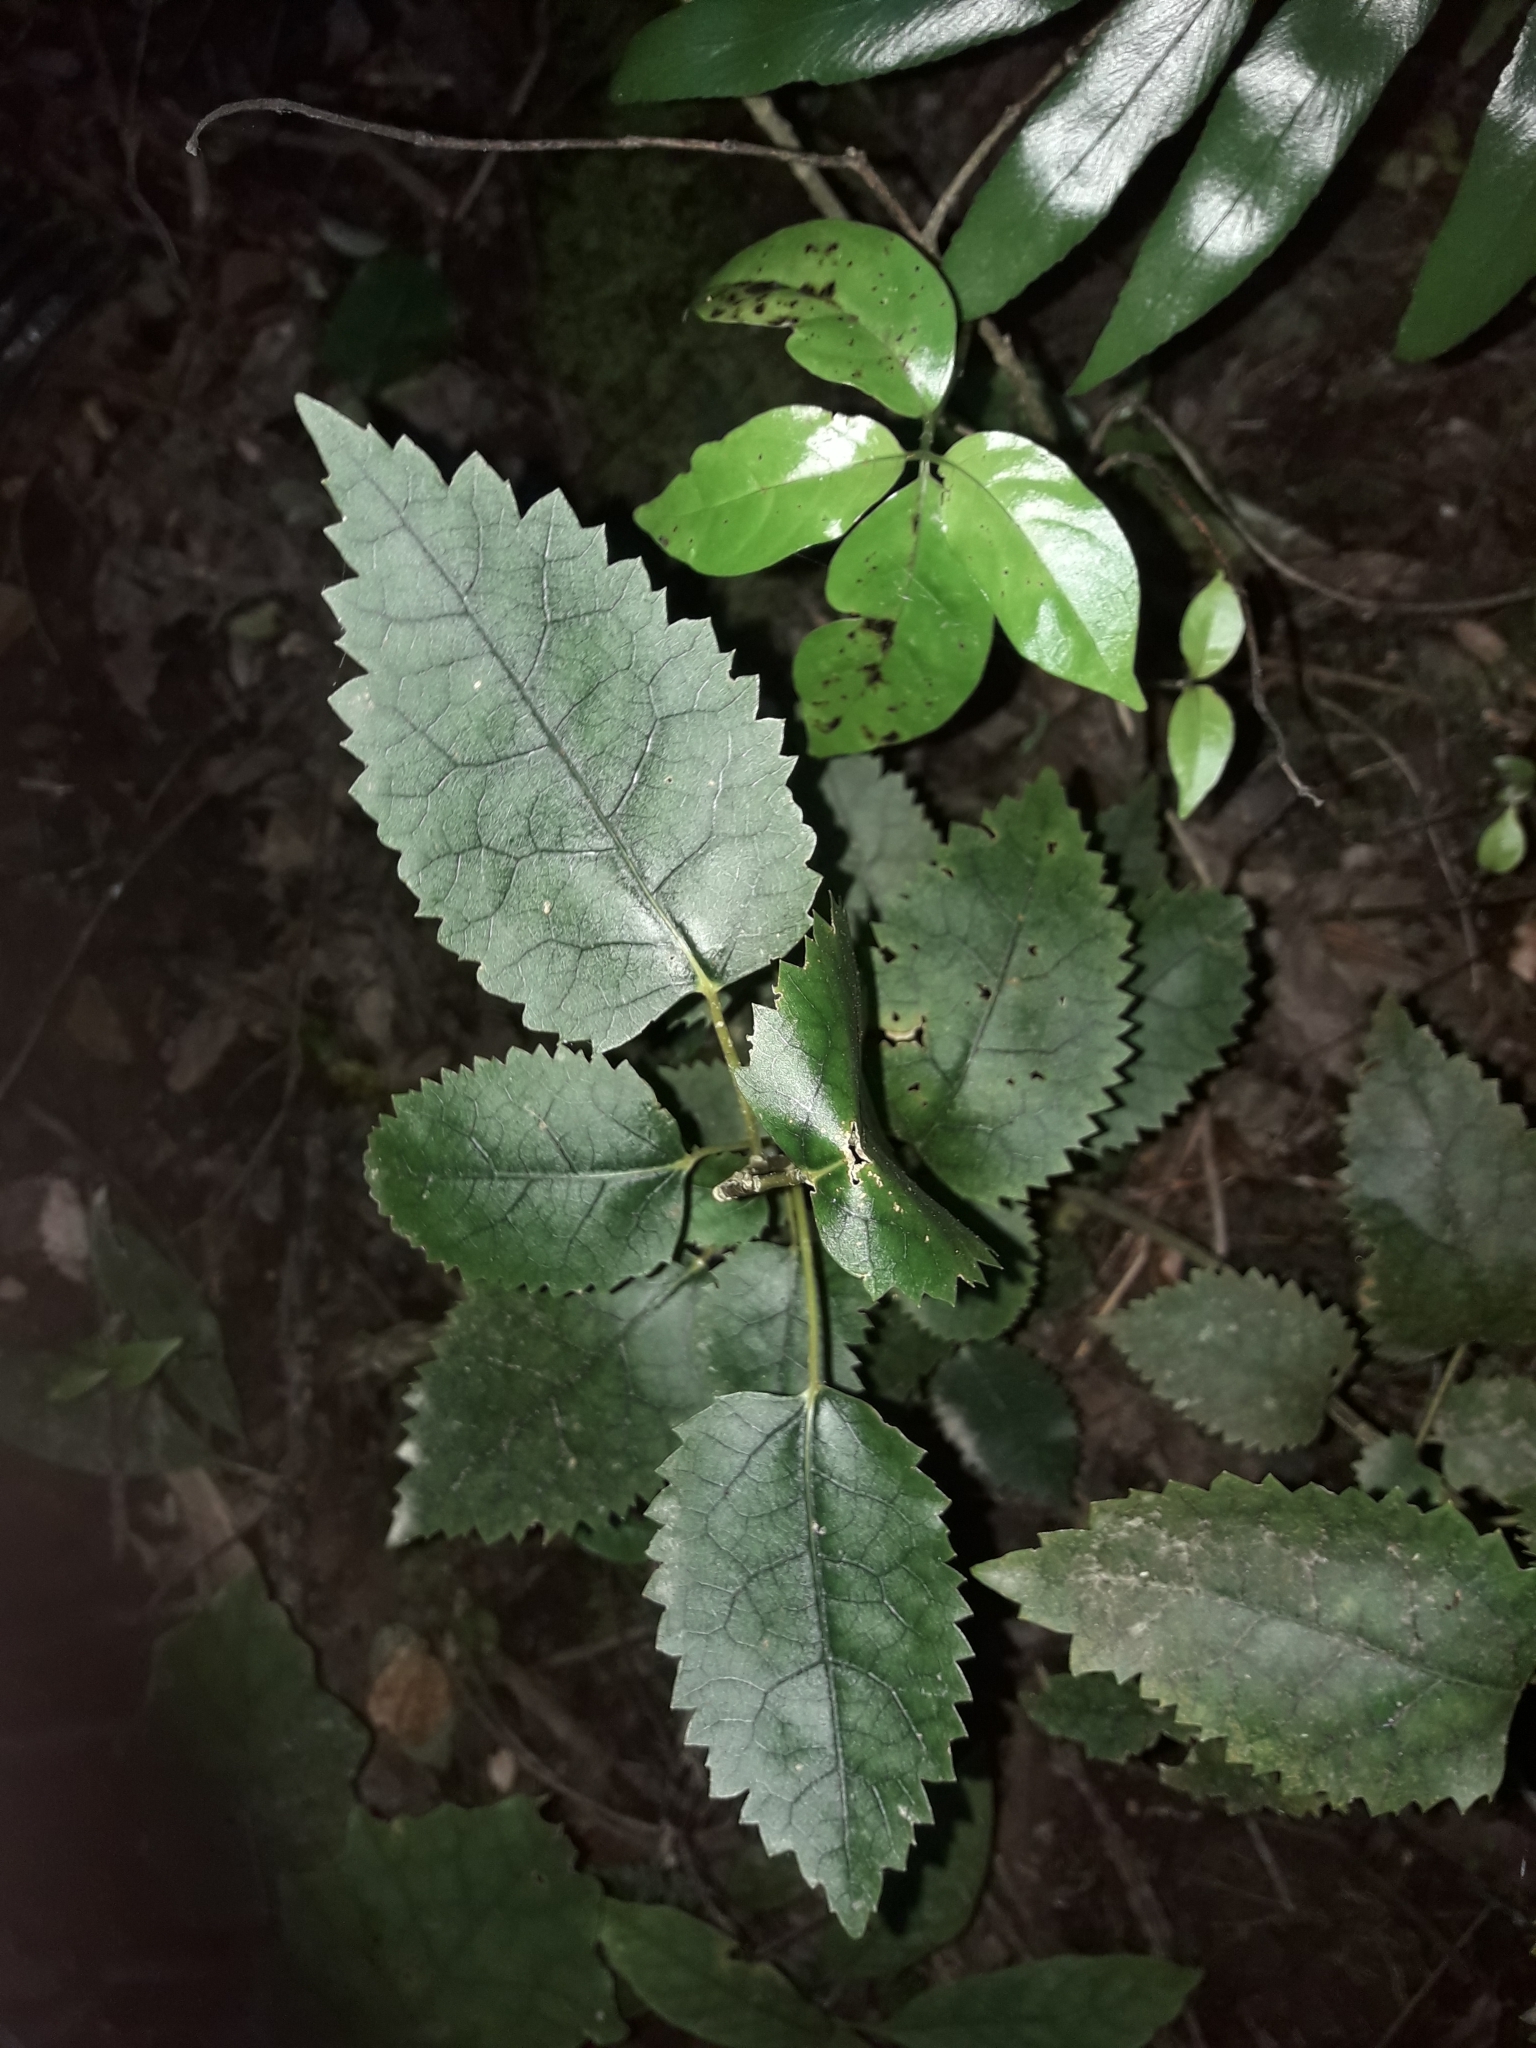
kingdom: Plantae
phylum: Tracheophyta
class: Magnoliopsida
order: Malvales
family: Malvaceae
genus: Hoheria
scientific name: Hoheria populnea
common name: Lacebark
